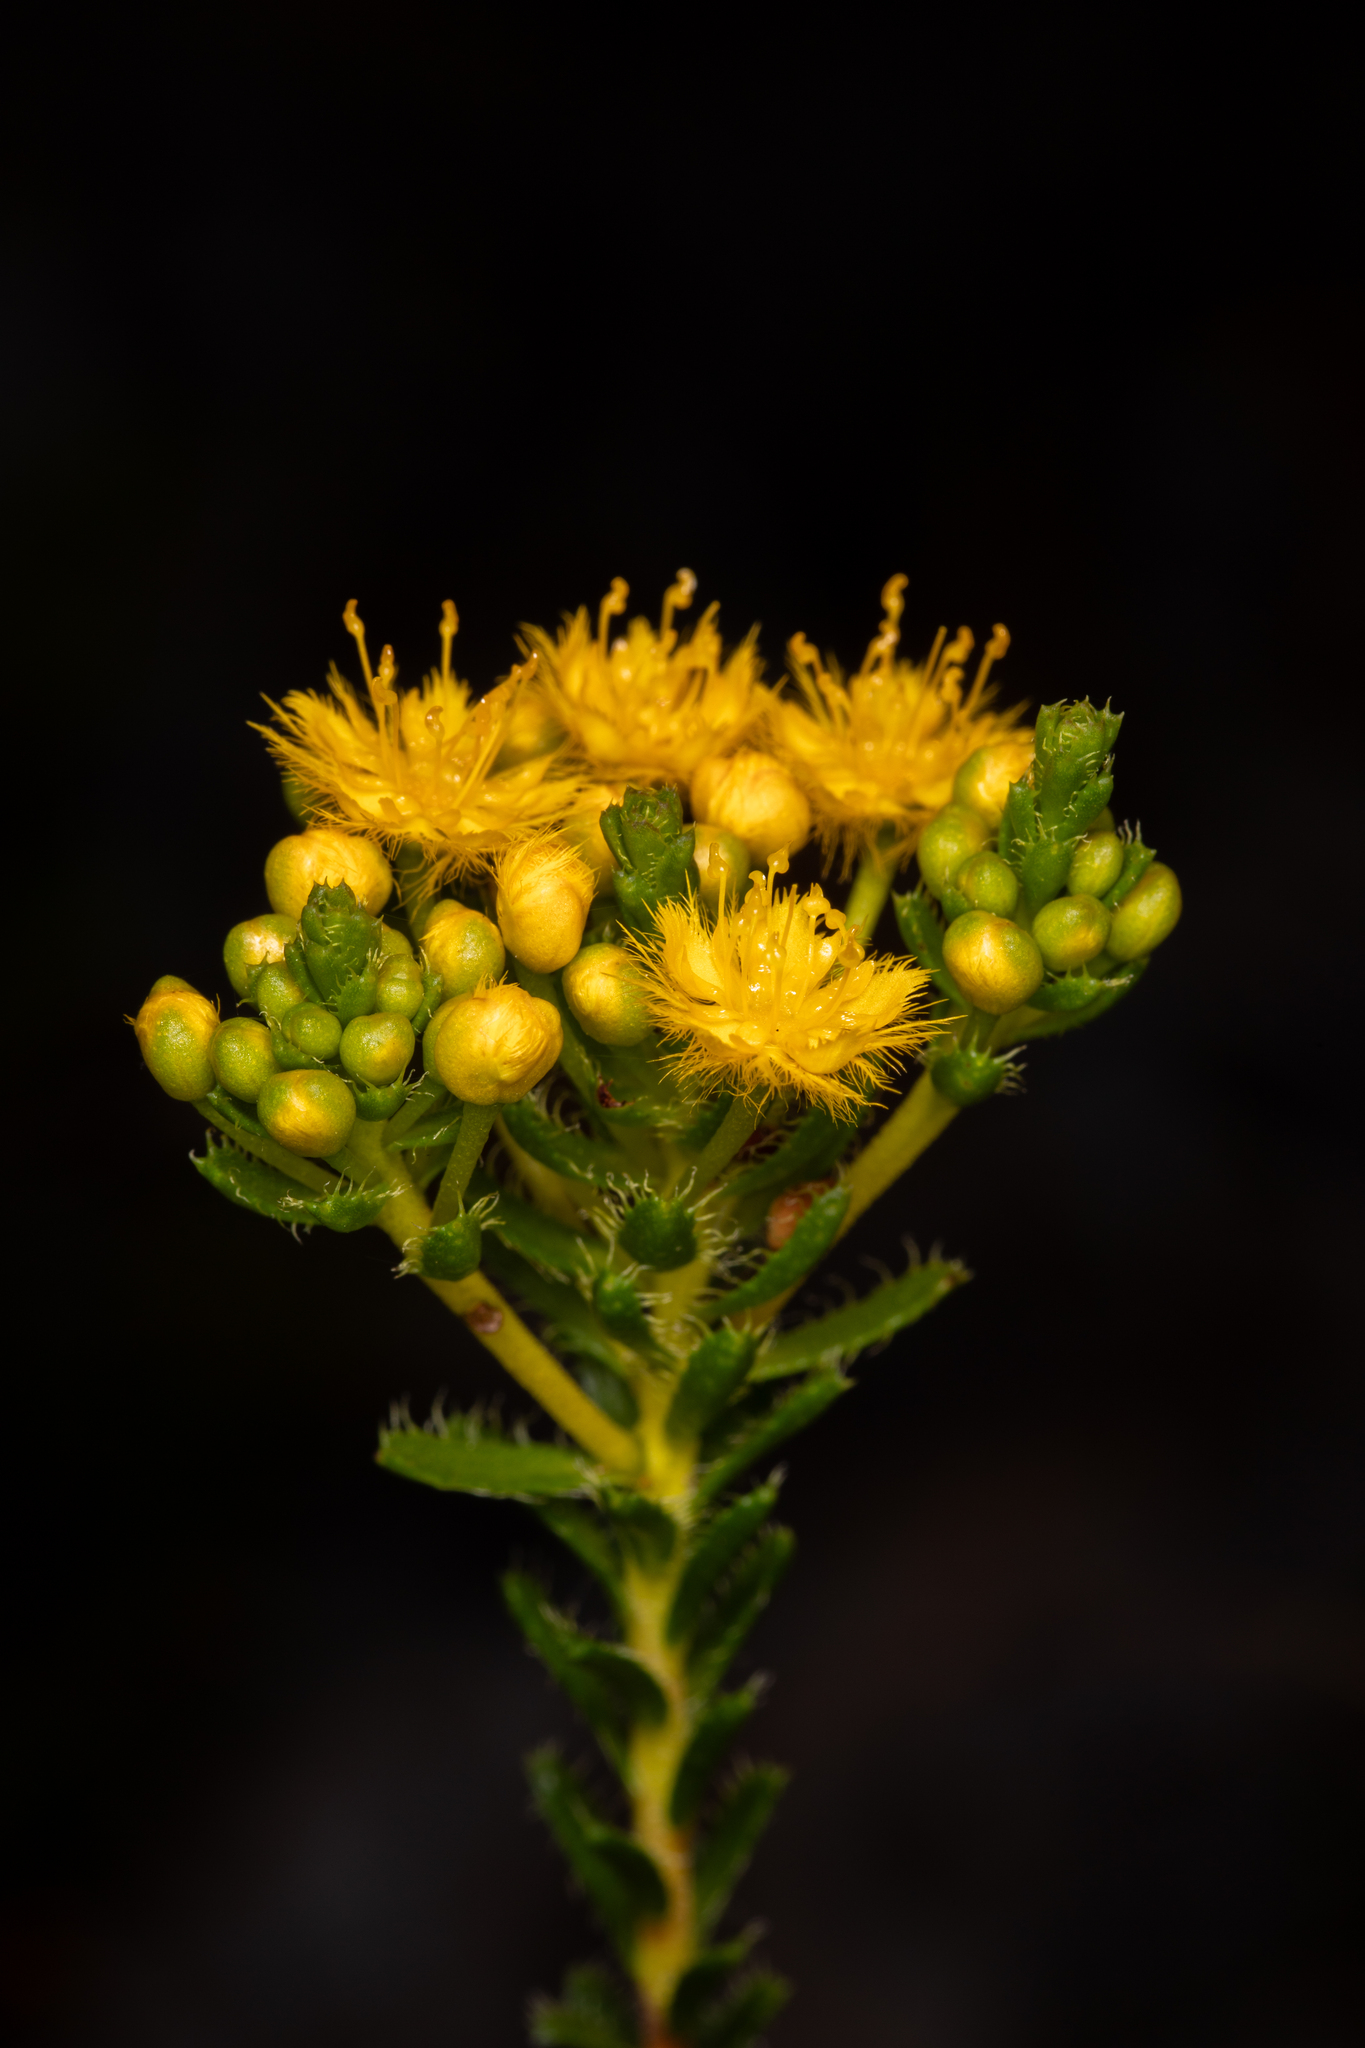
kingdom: Plantae
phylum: Tracheophyta
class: Magnoliopsida
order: Myrtales
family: Myrtaceae
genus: Verticordia
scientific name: Verticordia serrata
